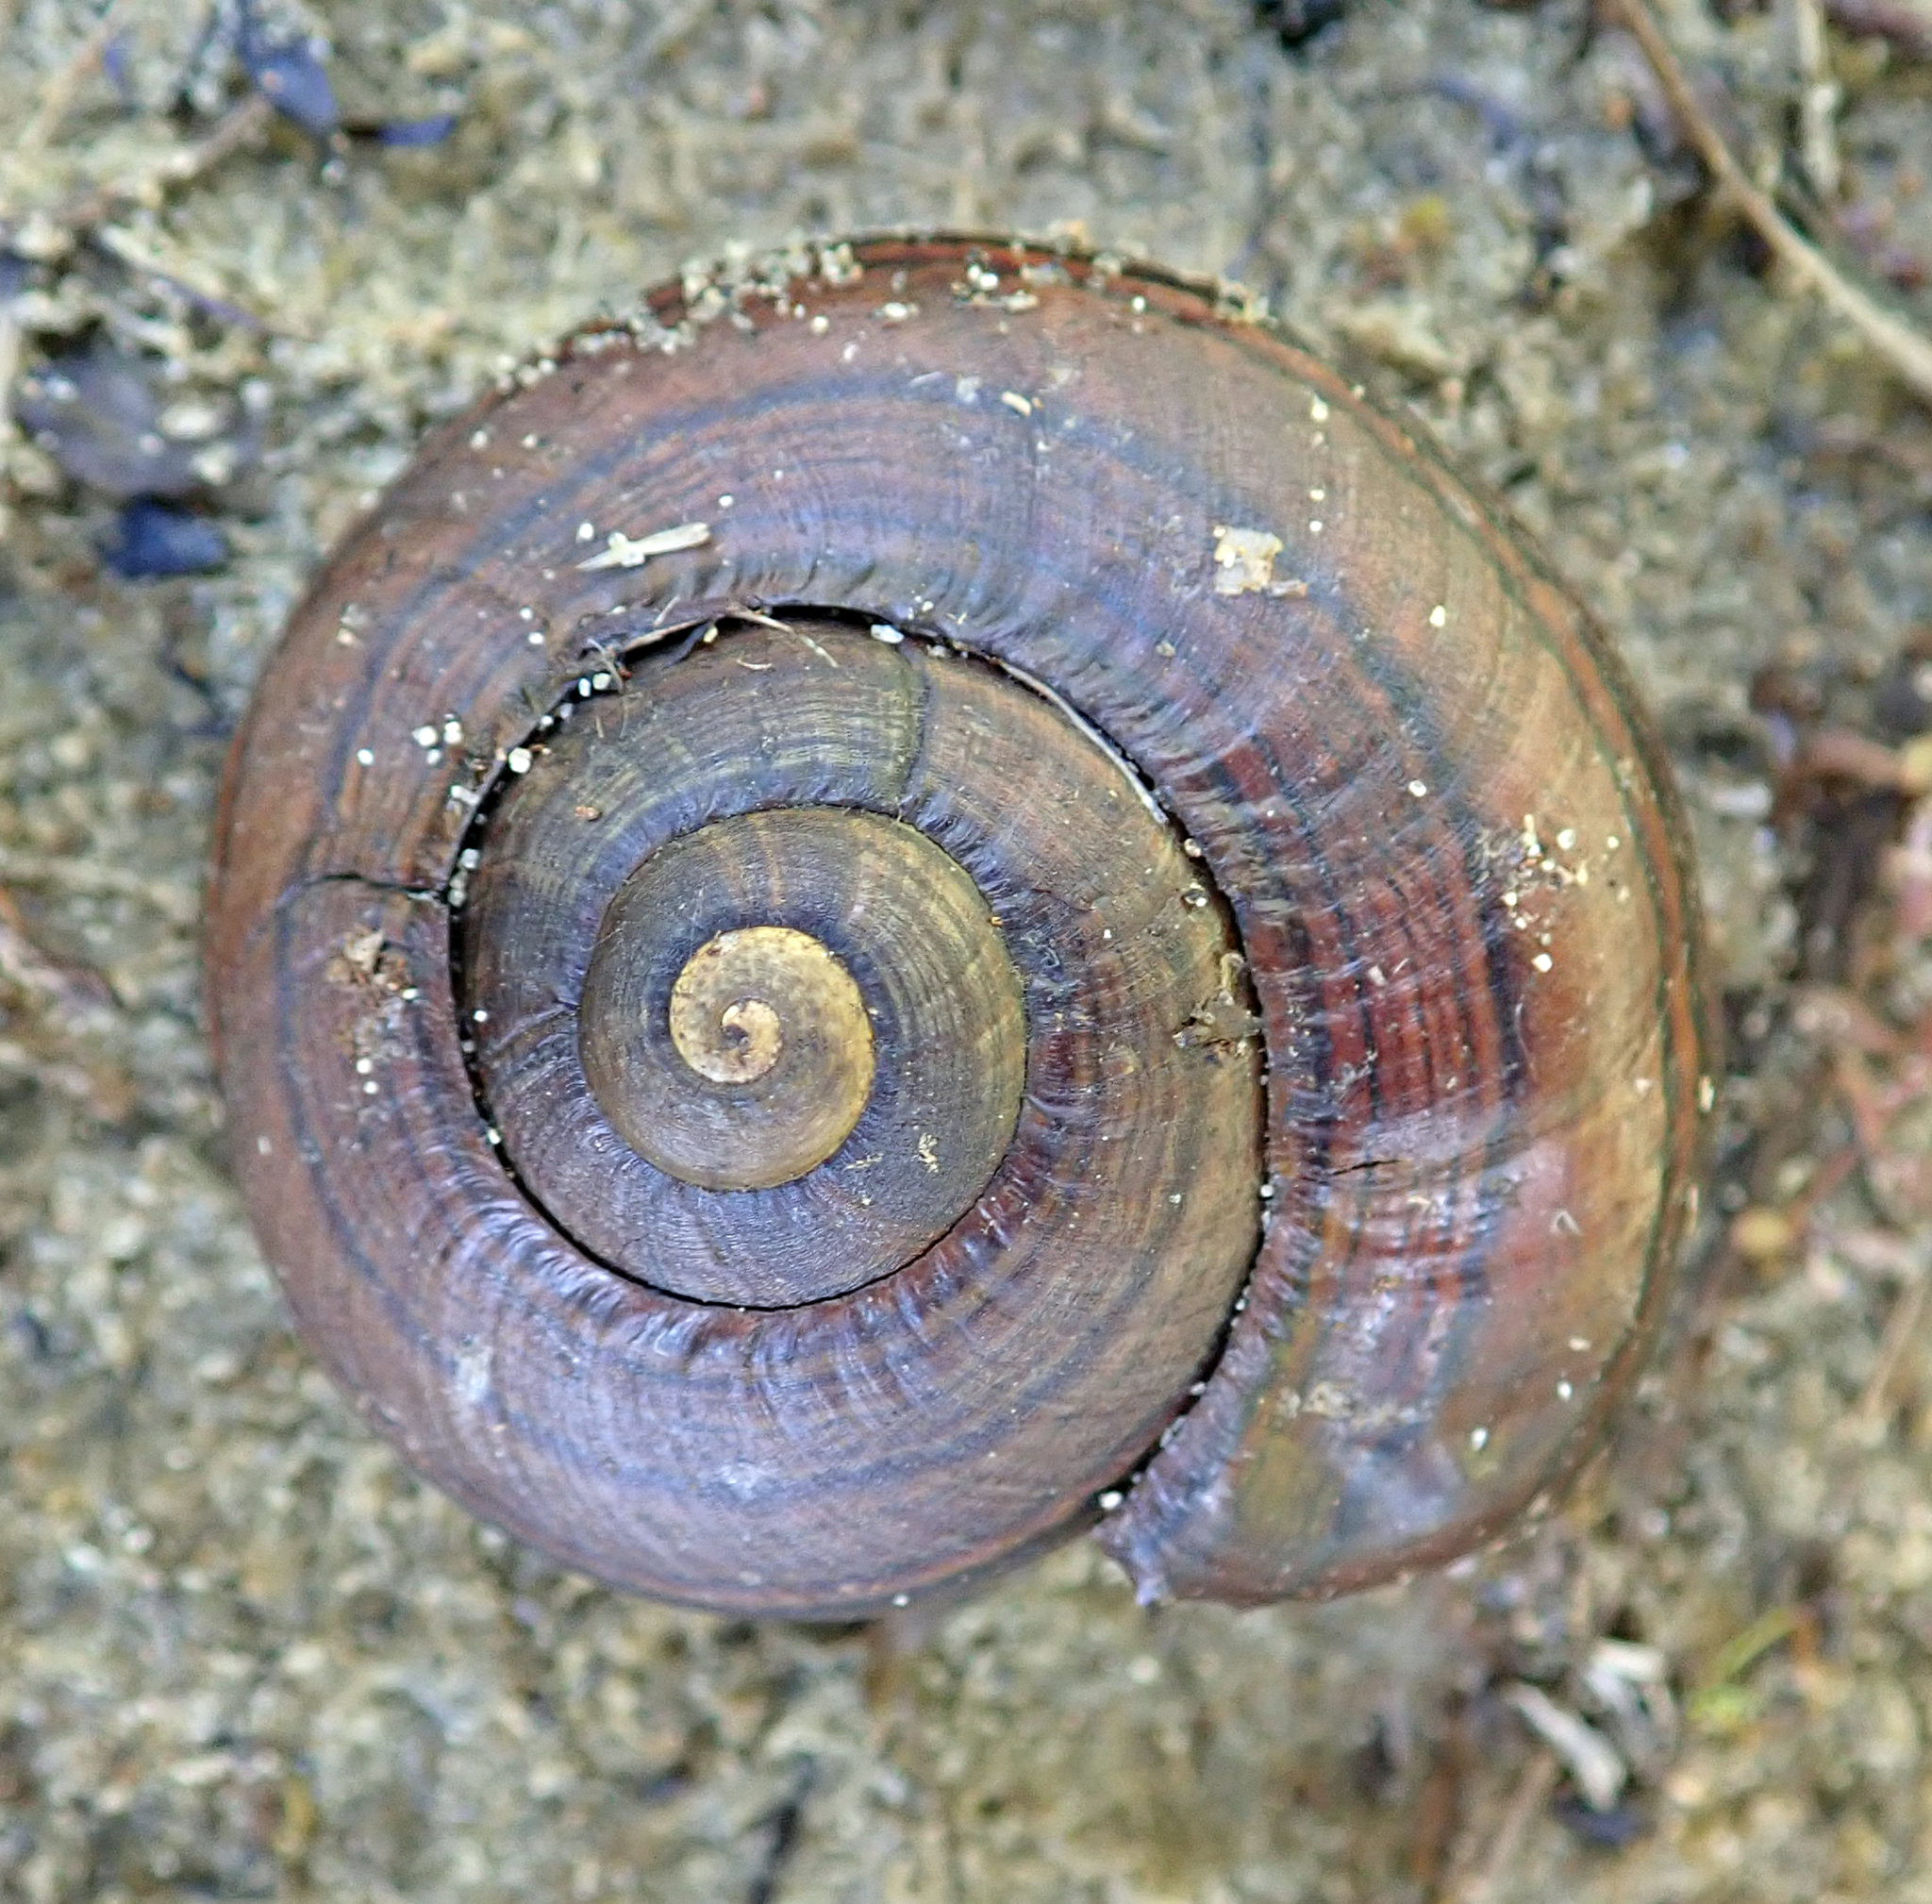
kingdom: Animalia
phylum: Mollusca
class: Gastropoda
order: Stylommatophora
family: Rhytididae
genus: Powelliphanta
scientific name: Powelliphanta gilliesi
